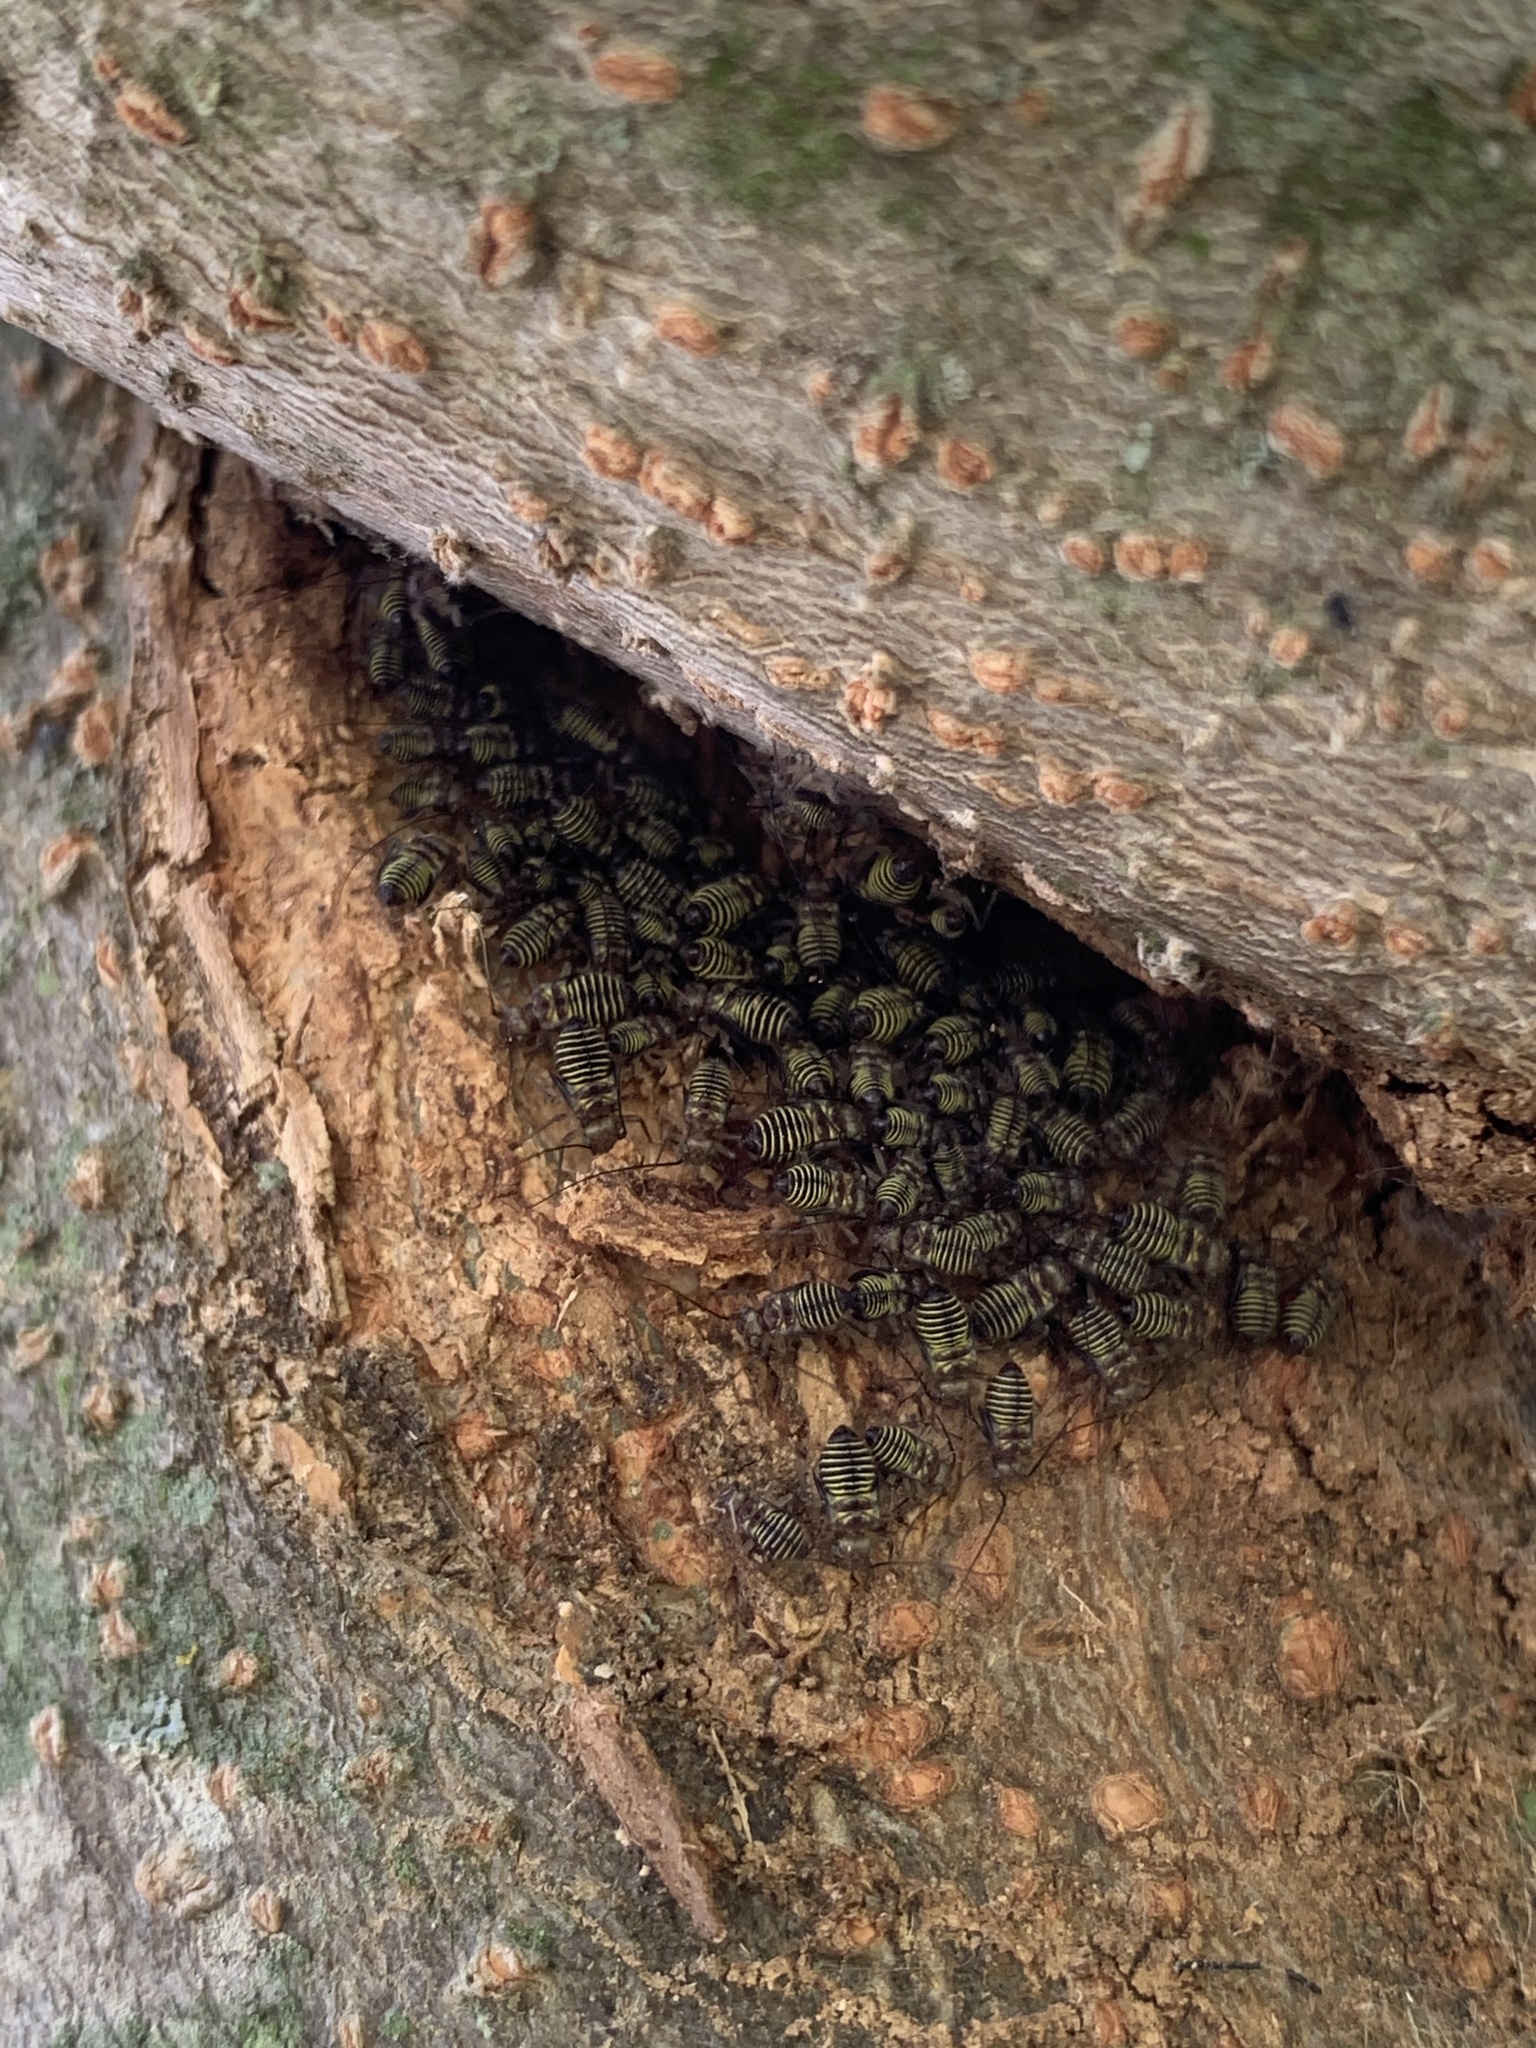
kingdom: Animalia
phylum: Arthropoda
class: Insecta
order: Psocodea
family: Psocidae
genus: Cerastipsocus
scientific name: Cerastipsocus venosus
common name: Tree cattle
